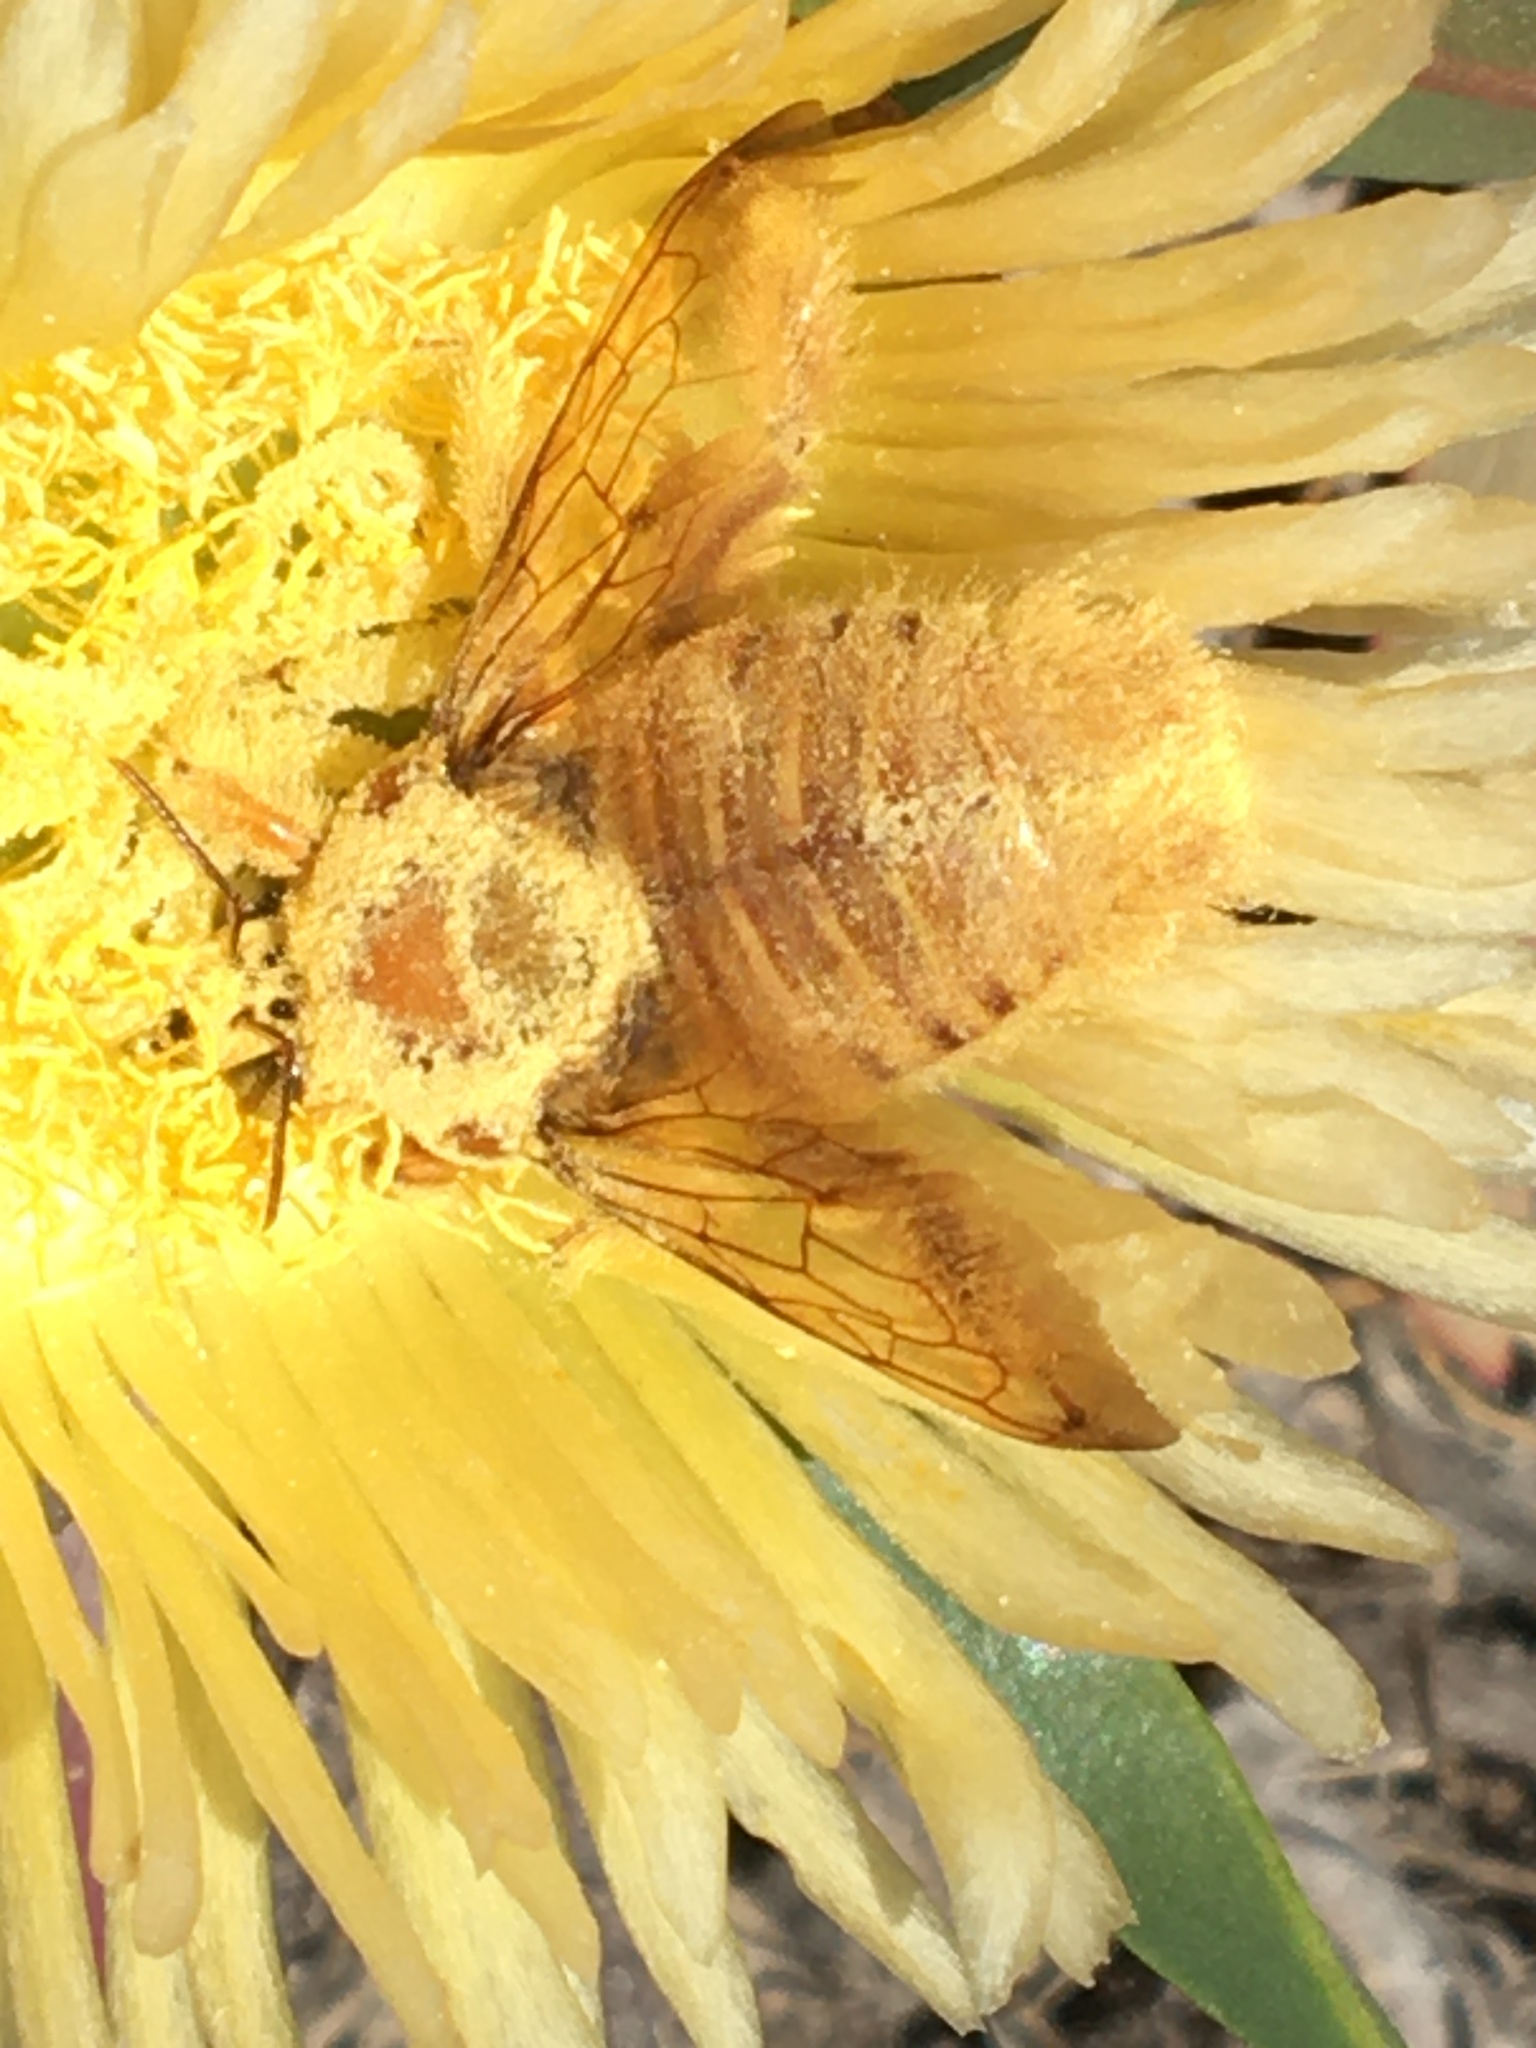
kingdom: Animalia
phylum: Arthropoda
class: Insecta
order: Hymenoptera
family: Apidae
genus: Xylocopa
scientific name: Xylocopa sonorina
